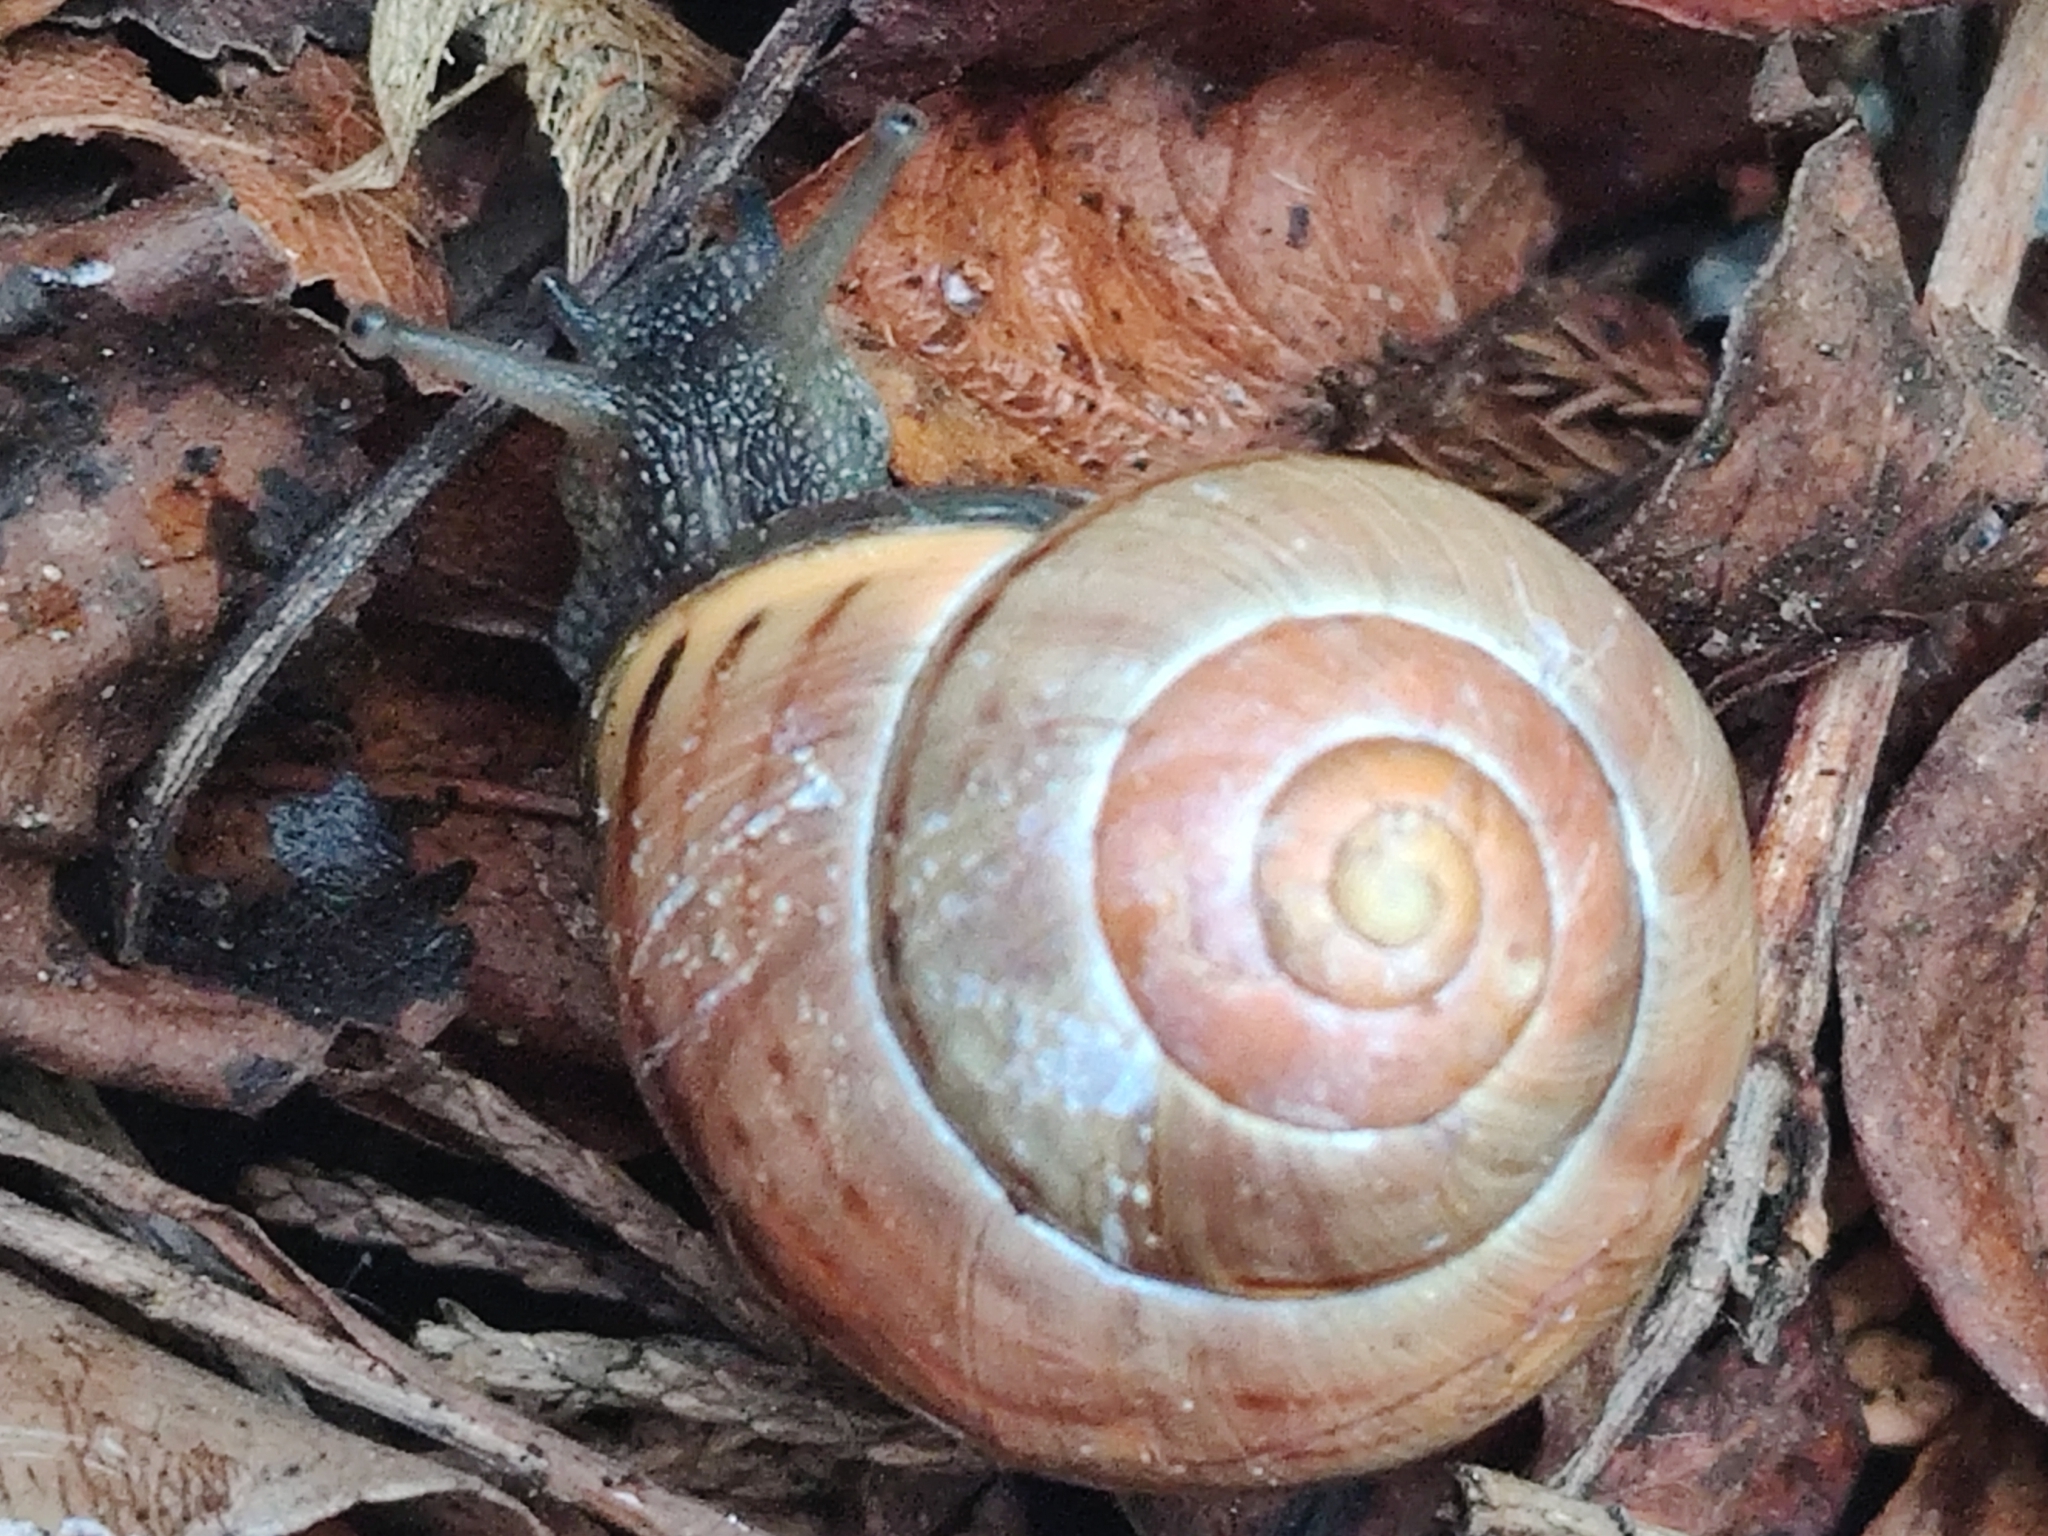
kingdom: Animalia
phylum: Mollusca
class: Gastropoda
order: Stylommatophora
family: Helicidae
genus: Cepaea
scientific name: Cepaea nemoralis
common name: Grovesnail
